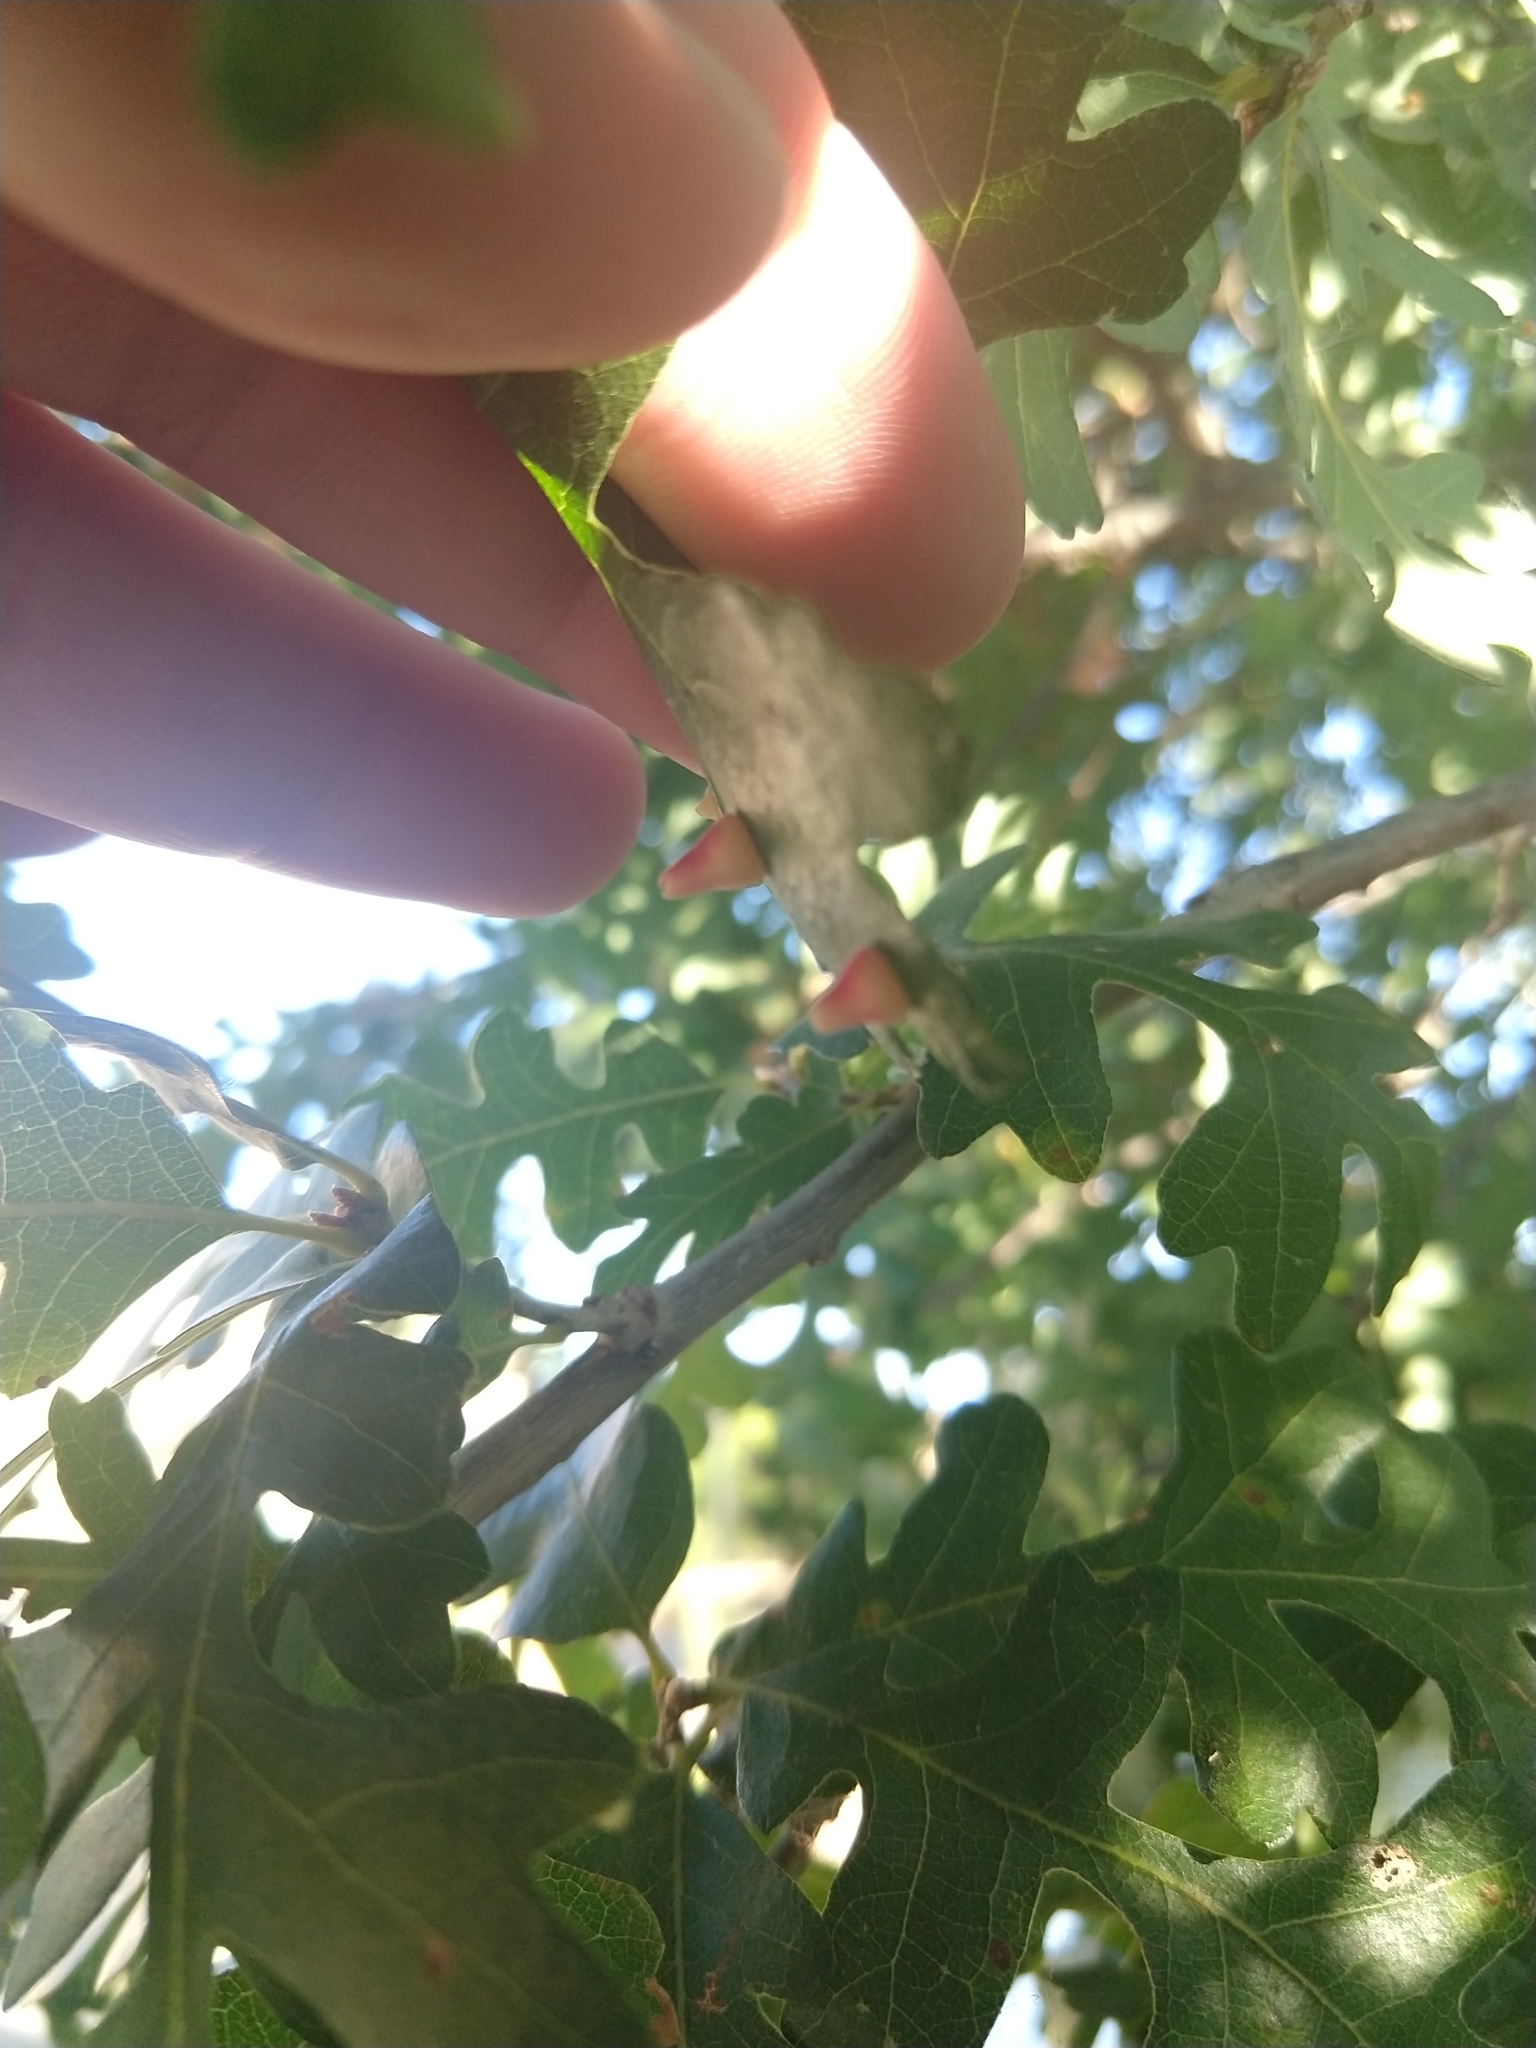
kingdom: Animalia
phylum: Arthropoda
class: Insecta
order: Hymenoptera
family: Cynipidae
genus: Andricus
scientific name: Andricus
